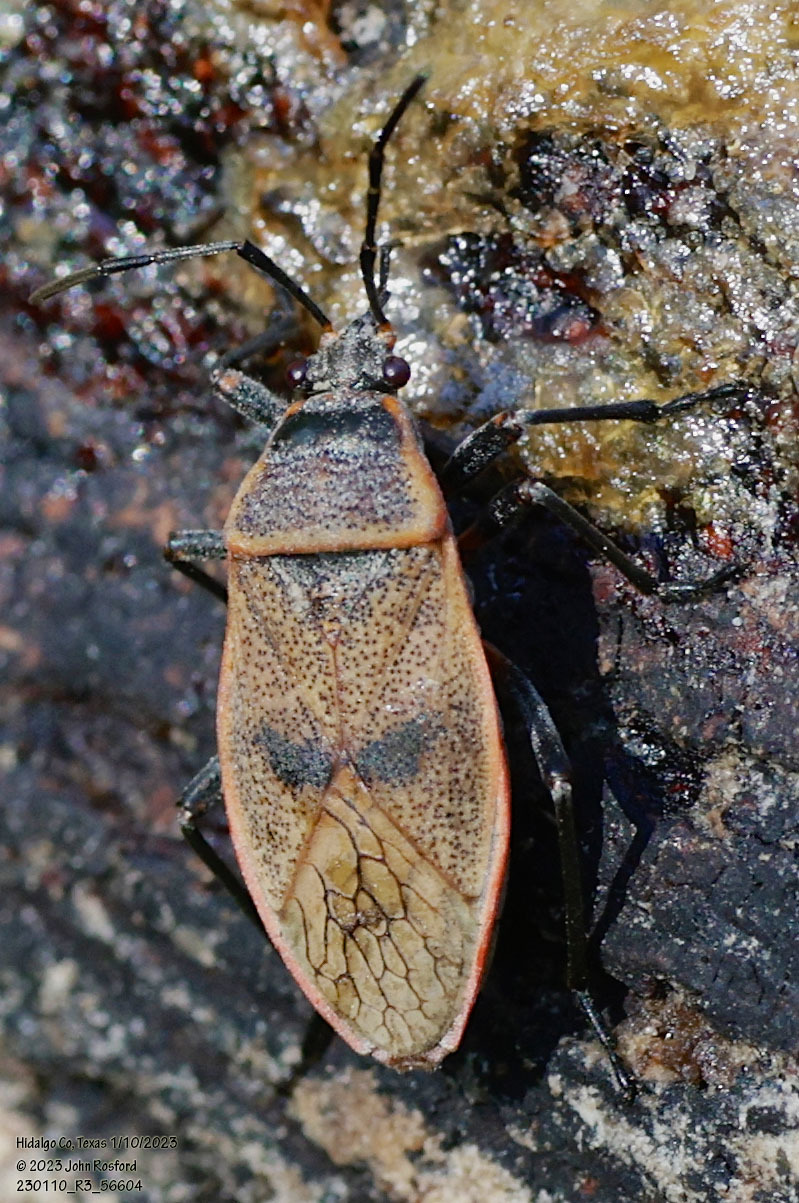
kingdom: Animalia
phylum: Arthropoda
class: Insecta
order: Hemiptera
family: Largidae
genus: Largus
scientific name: Largus maculatus
